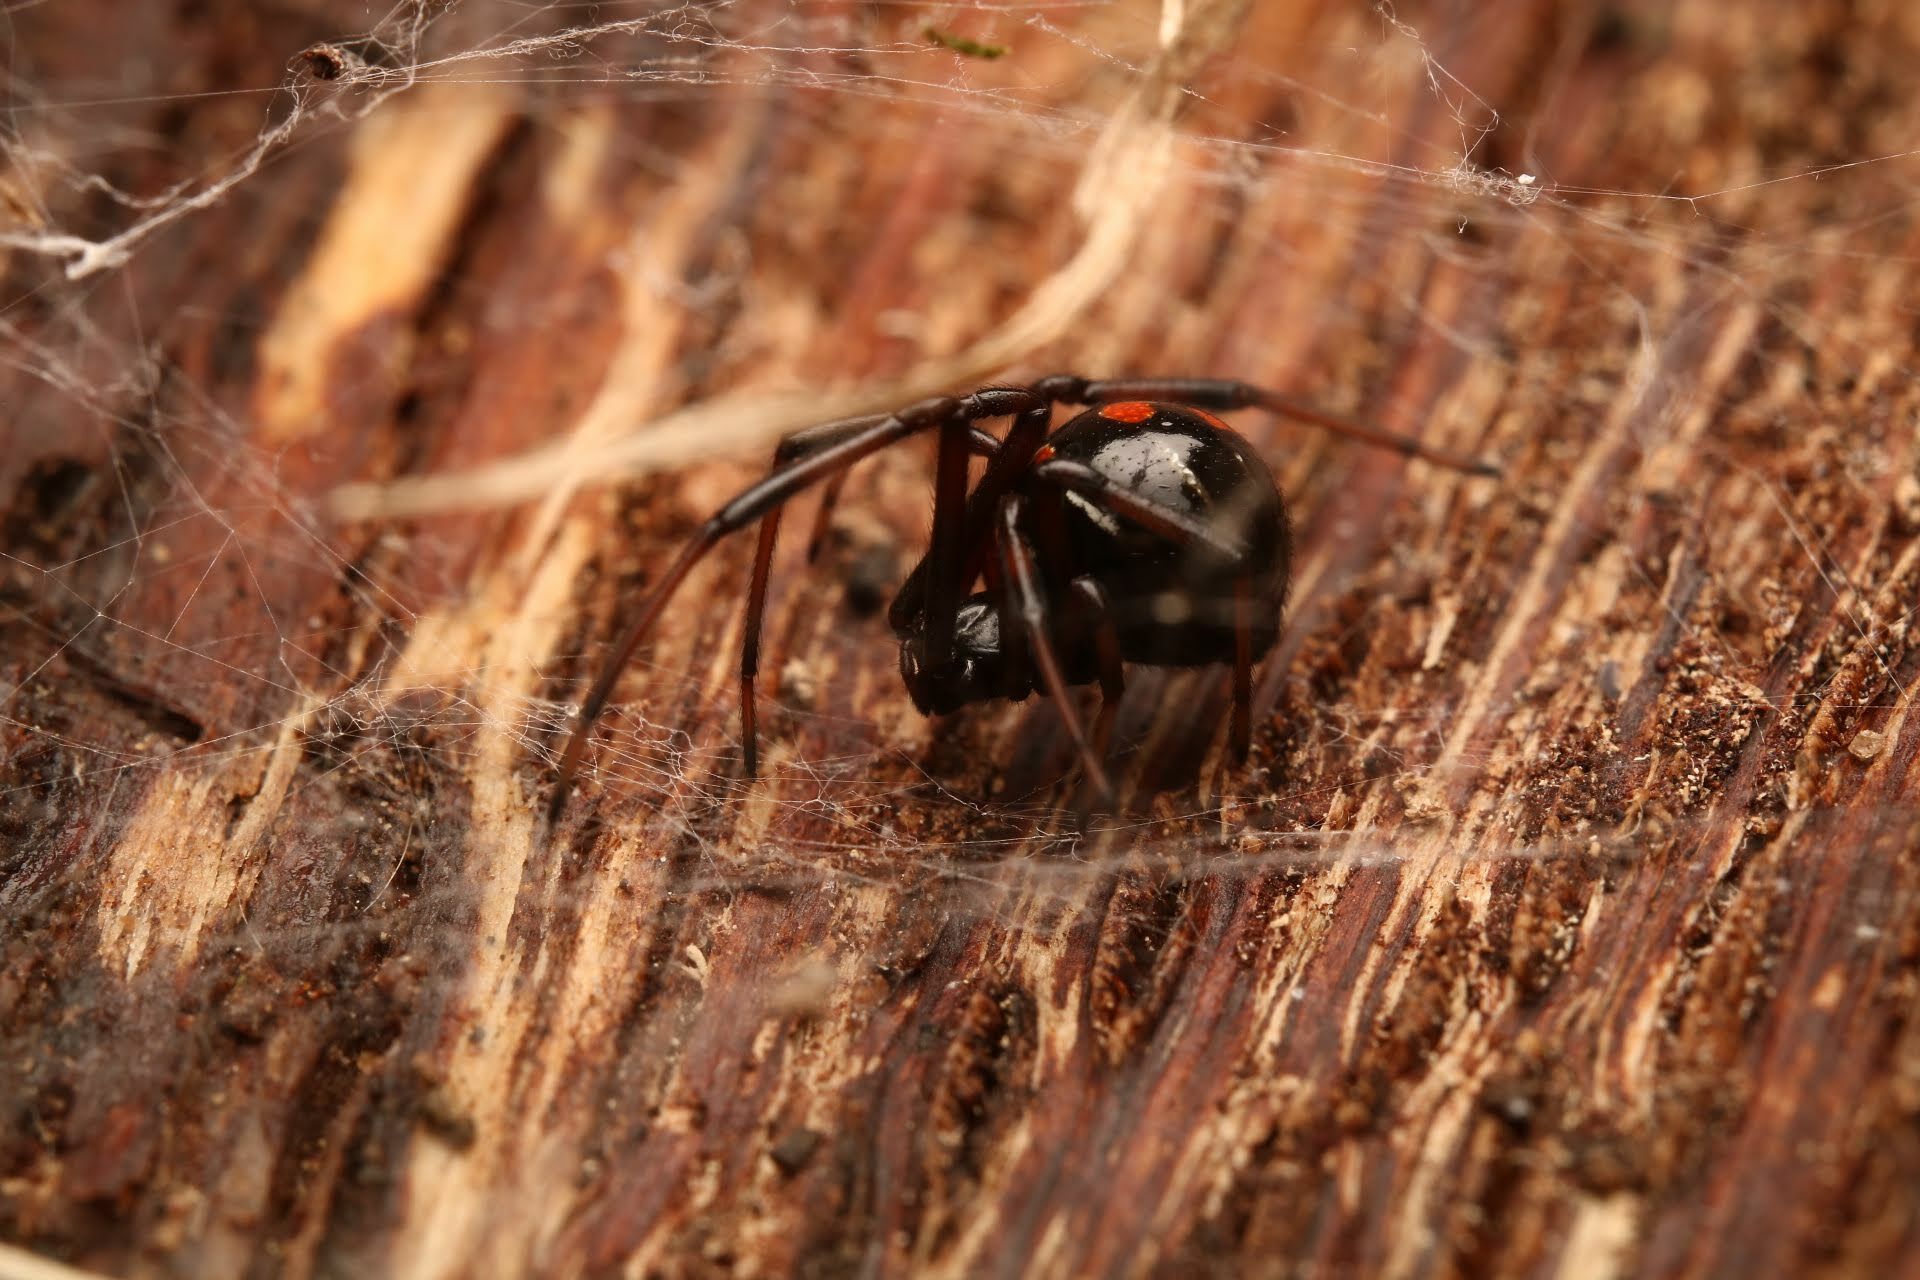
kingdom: Animalia
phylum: Arthropoda
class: Arachnida
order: Araneae
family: Theridiidae
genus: Latrodectus
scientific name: Latrodectus variolus
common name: Northern black widow
